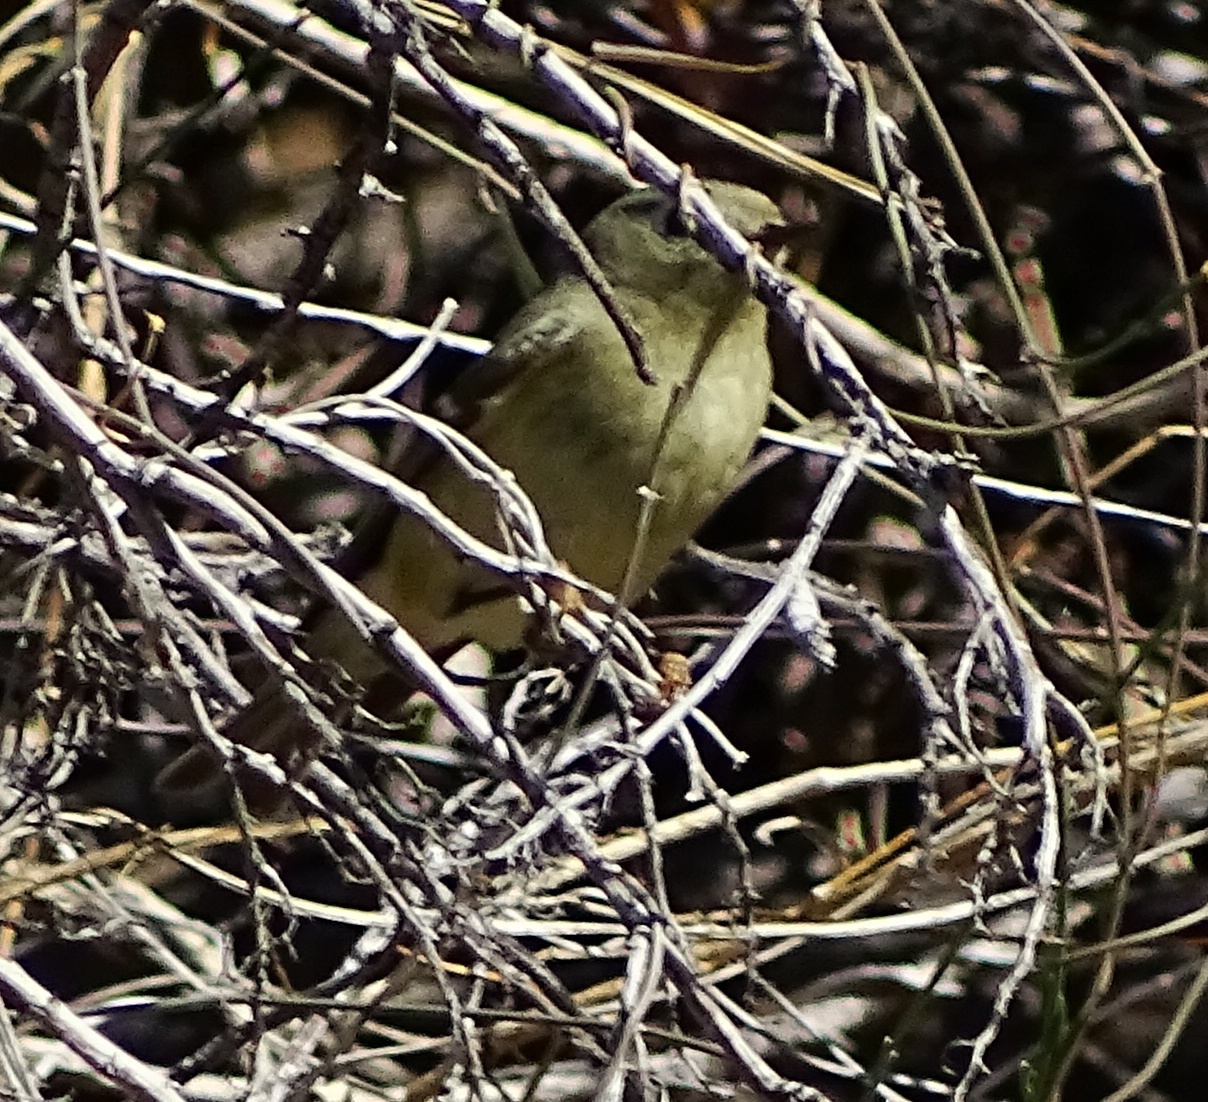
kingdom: Animalia
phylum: Chordata
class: Aves
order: Passeriformes
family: Regulidae
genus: Regulus
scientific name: Regulus calendula
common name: Ruby-crowned kinglet
